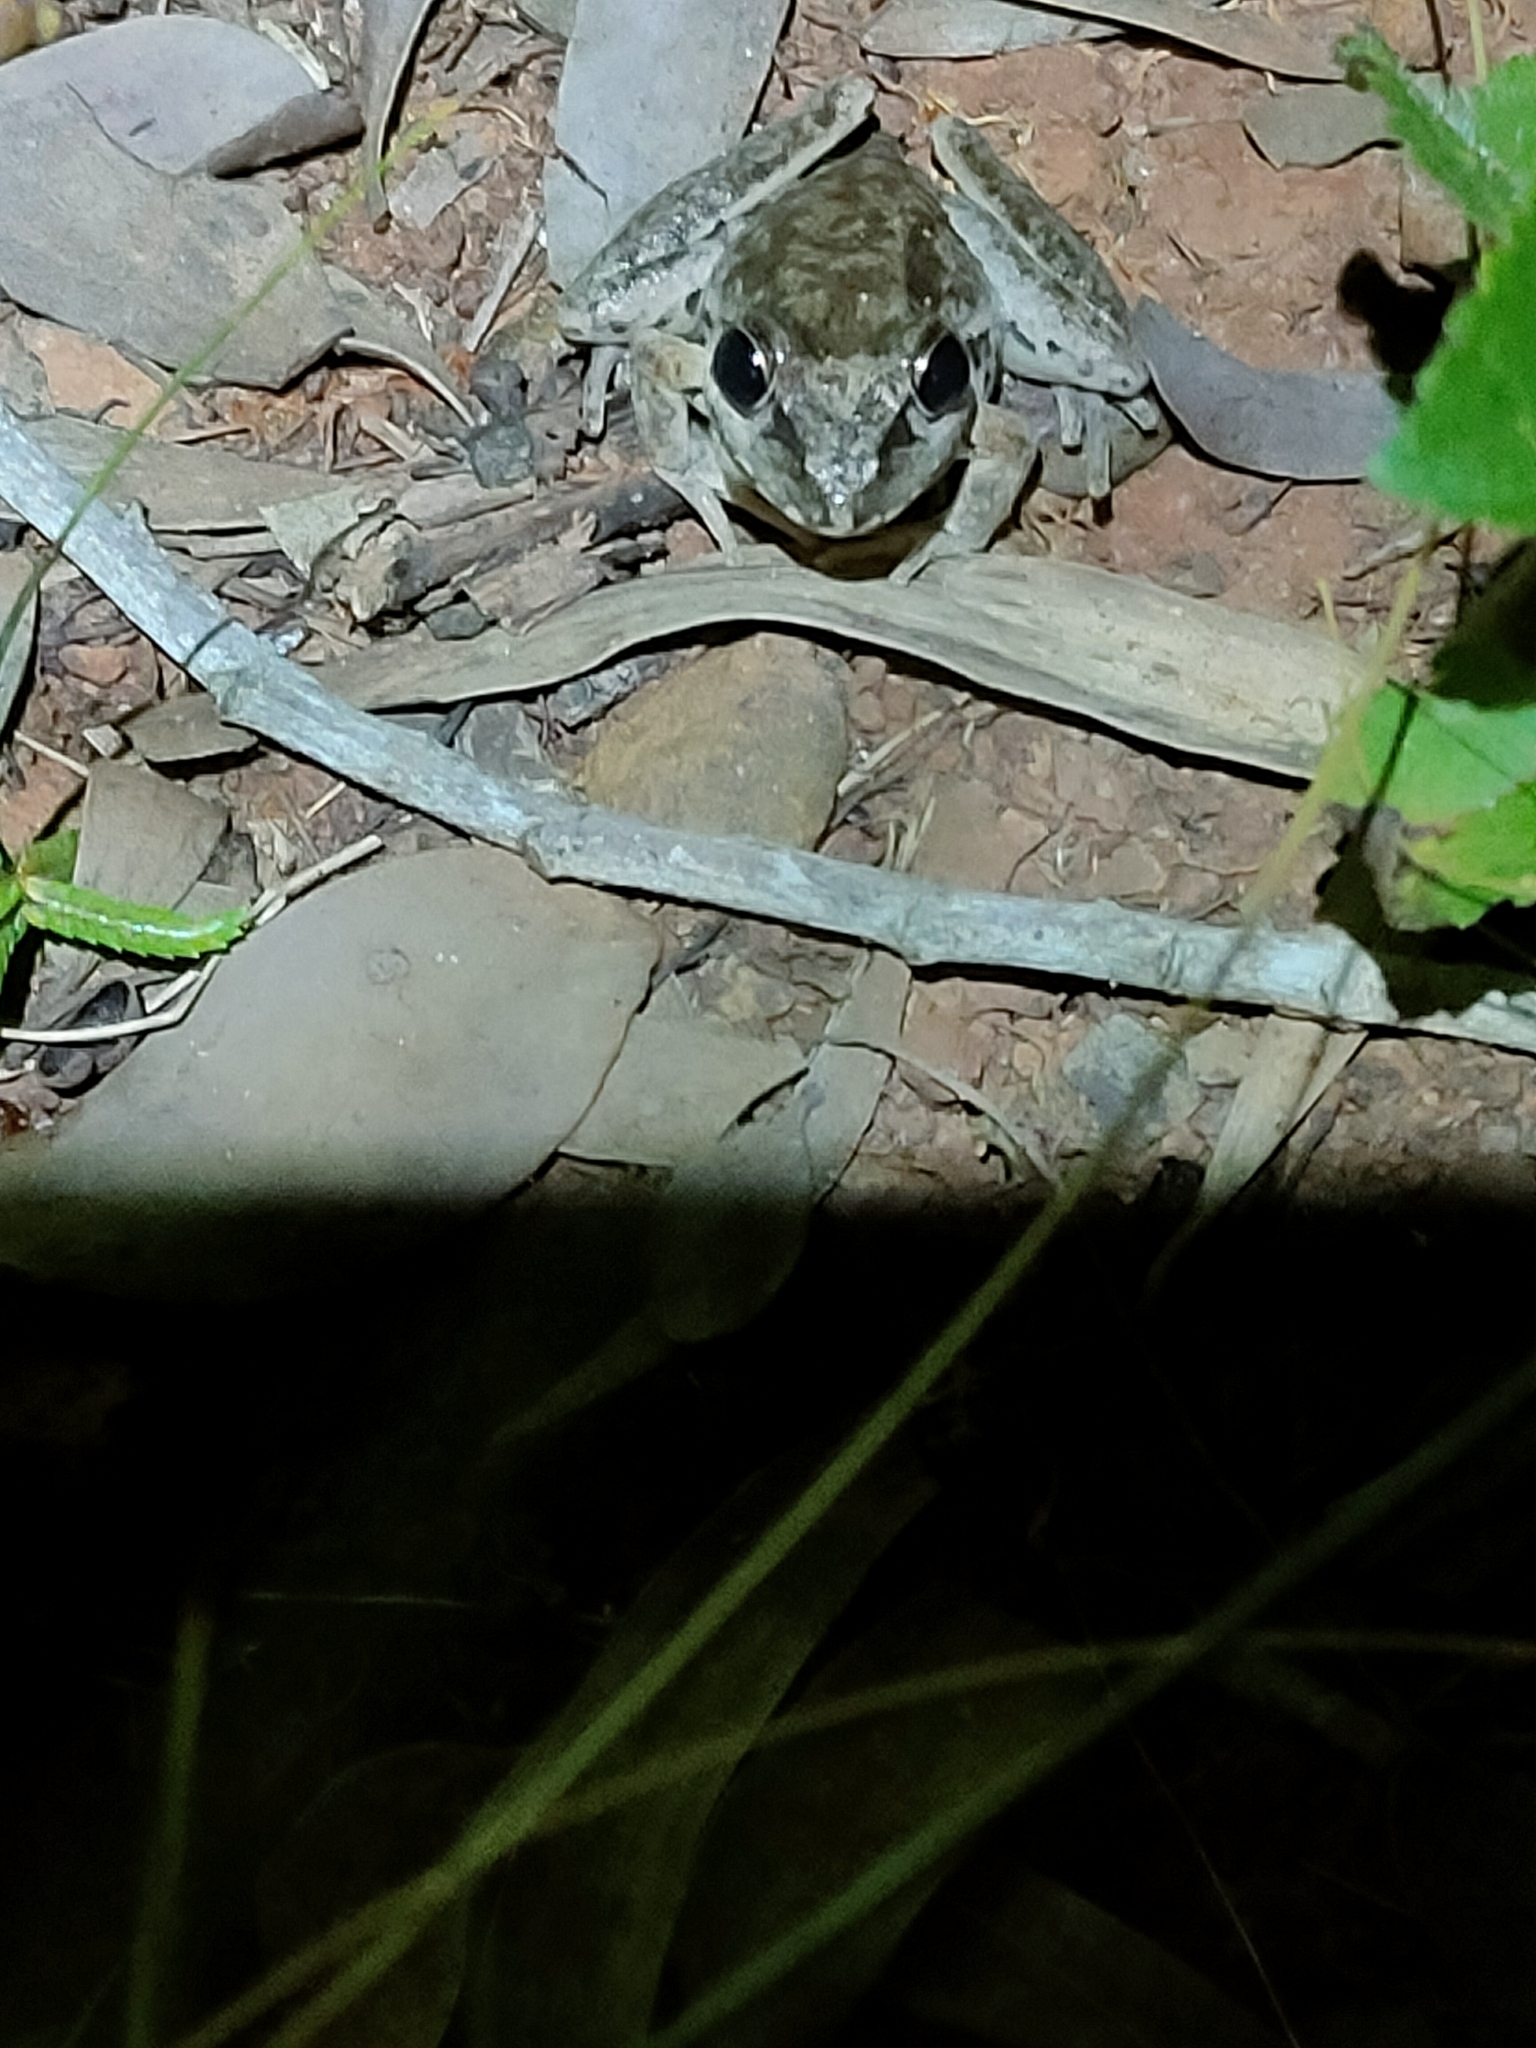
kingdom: Animalia
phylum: Chordata
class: Amphibia
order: Anura
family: Pelodryadidae
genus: Litoria
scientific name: Litoria latopalmata
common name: Broad-palmed rocket frog
